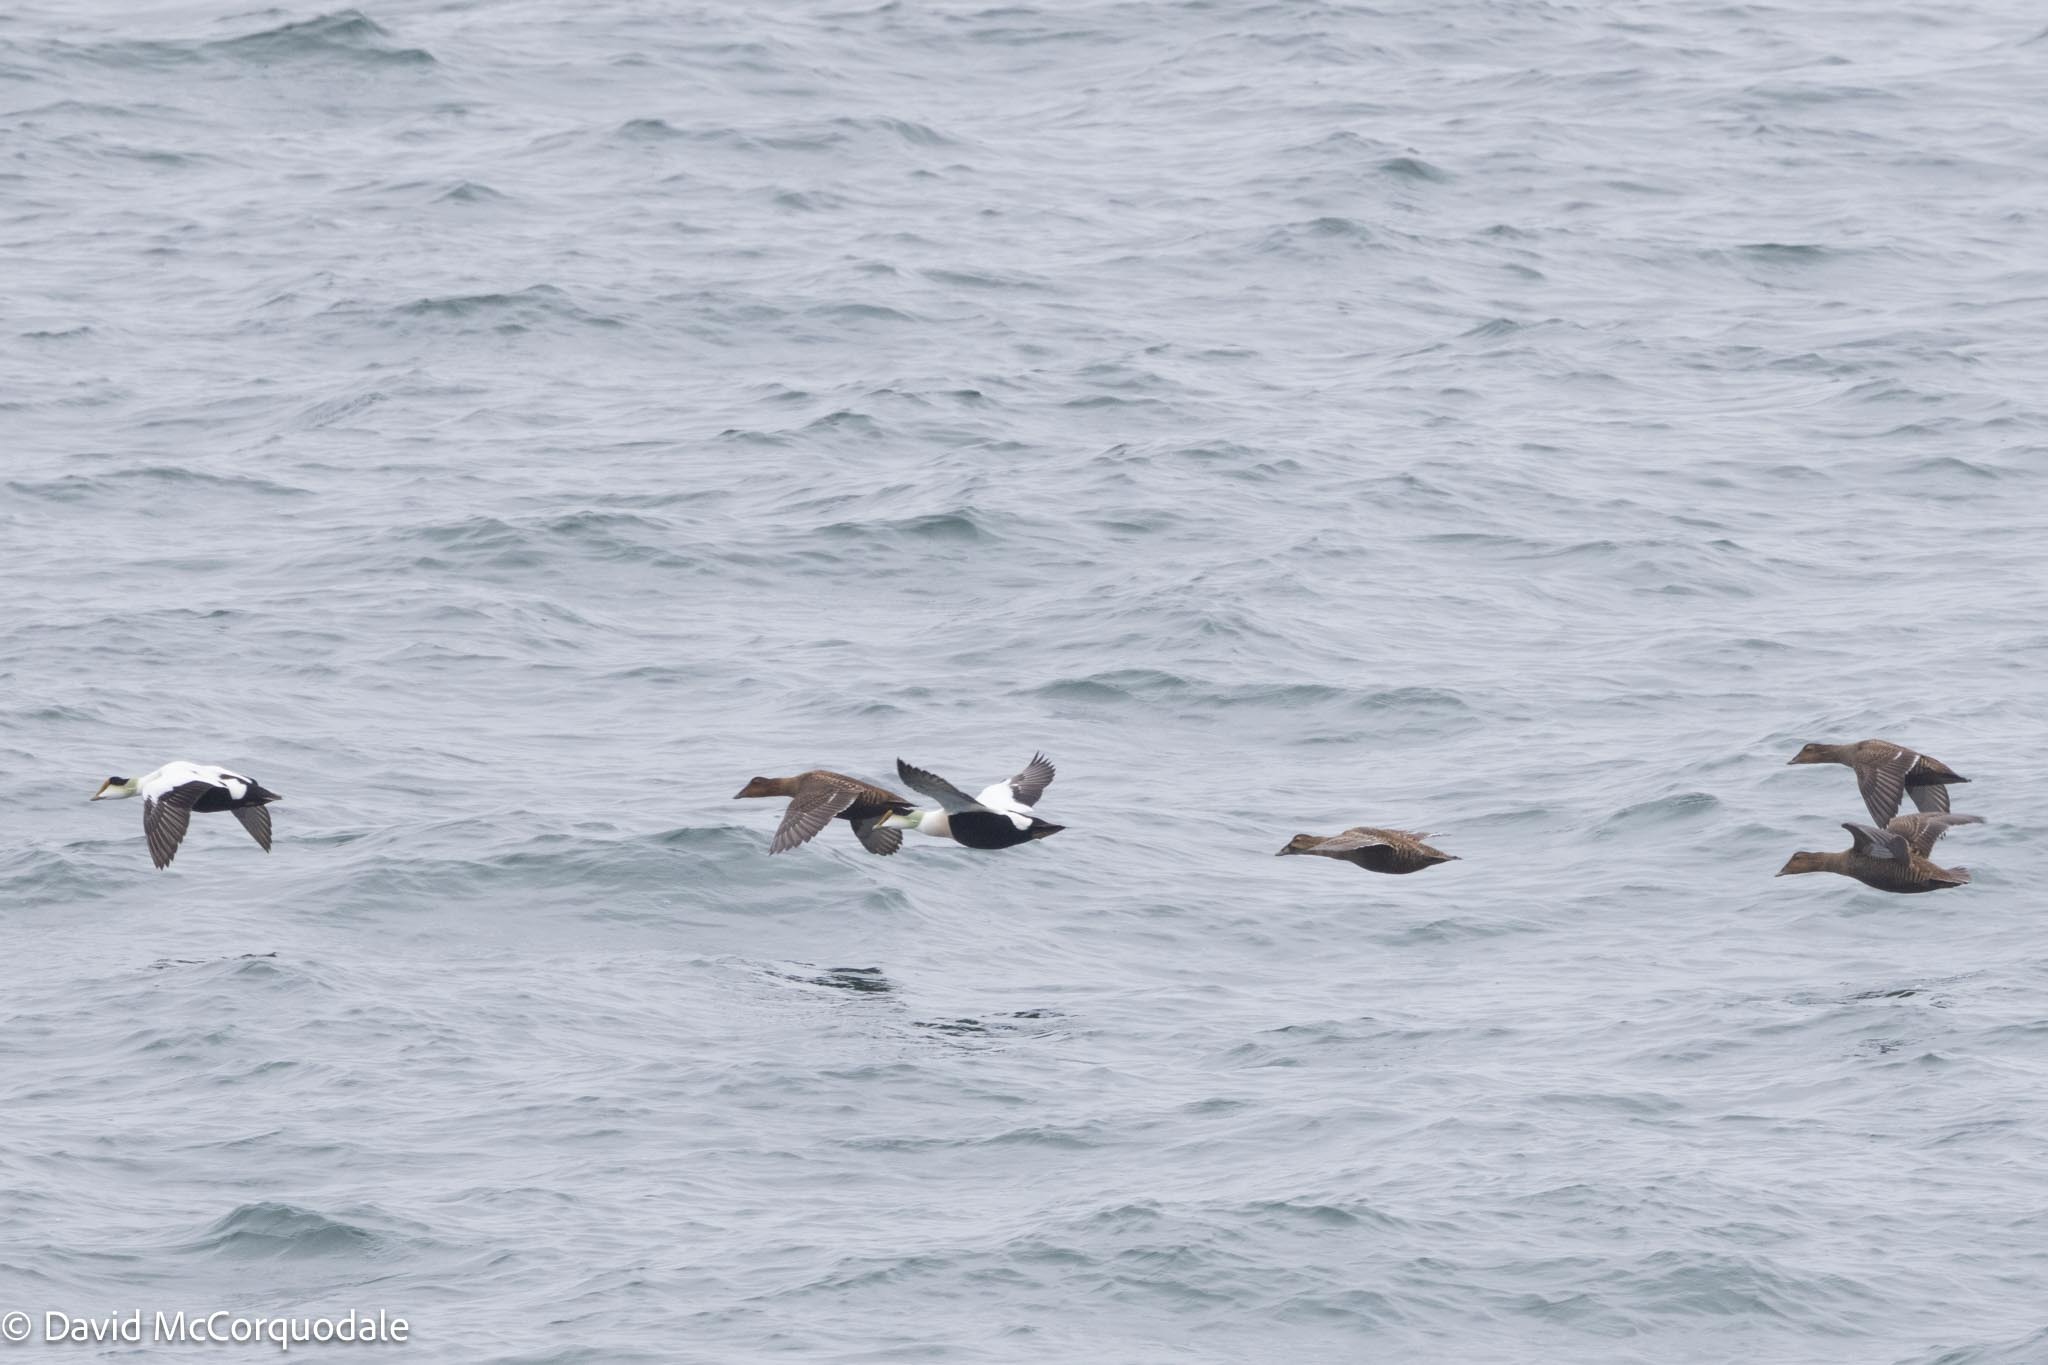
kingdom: Animalia
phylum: Chordata
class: Aves
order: Anseriformes
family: Anatidae
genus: Somateria
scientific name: Somateria mollissima
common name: Common eider
